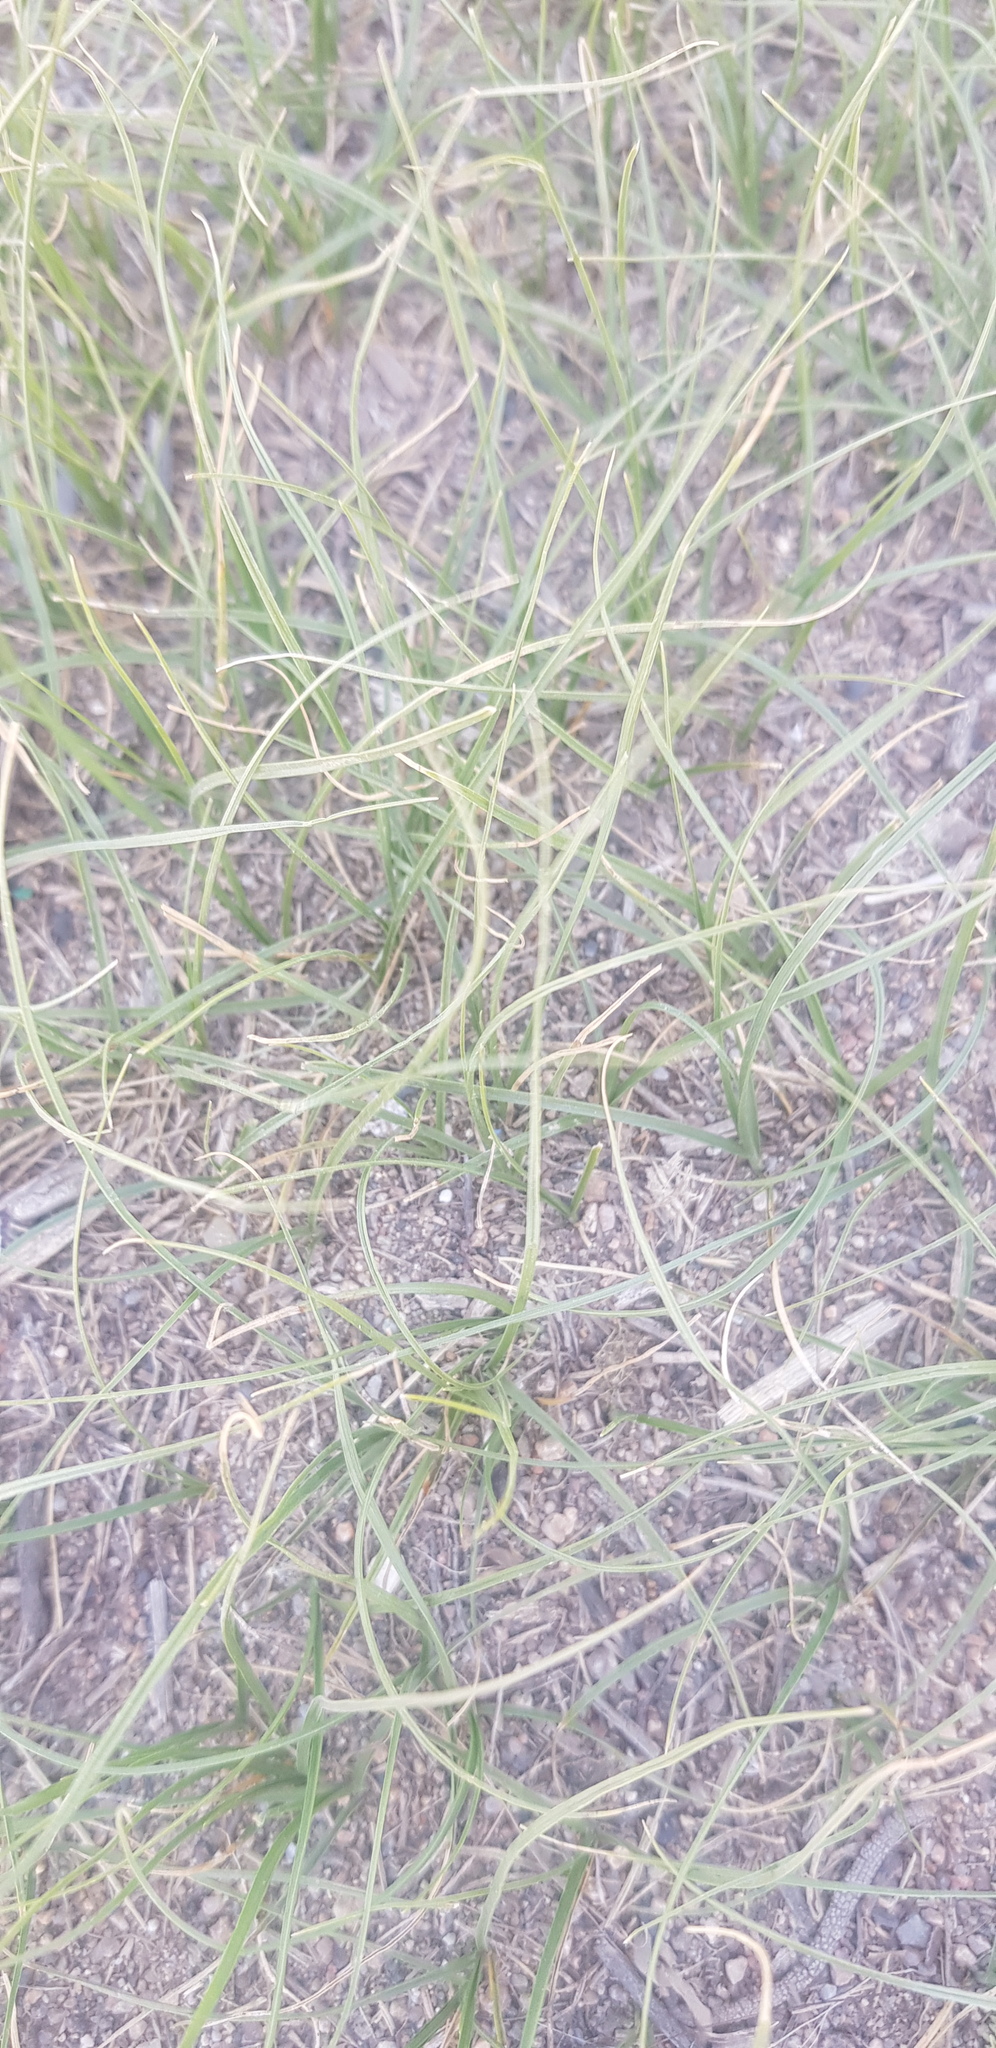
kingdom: Plantae
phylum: Tracheophyta
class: Liliopsida
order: Poales
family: Cyperaceae
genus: Carex
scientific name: Carex duriuscula
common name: Involute-leaved sedge
